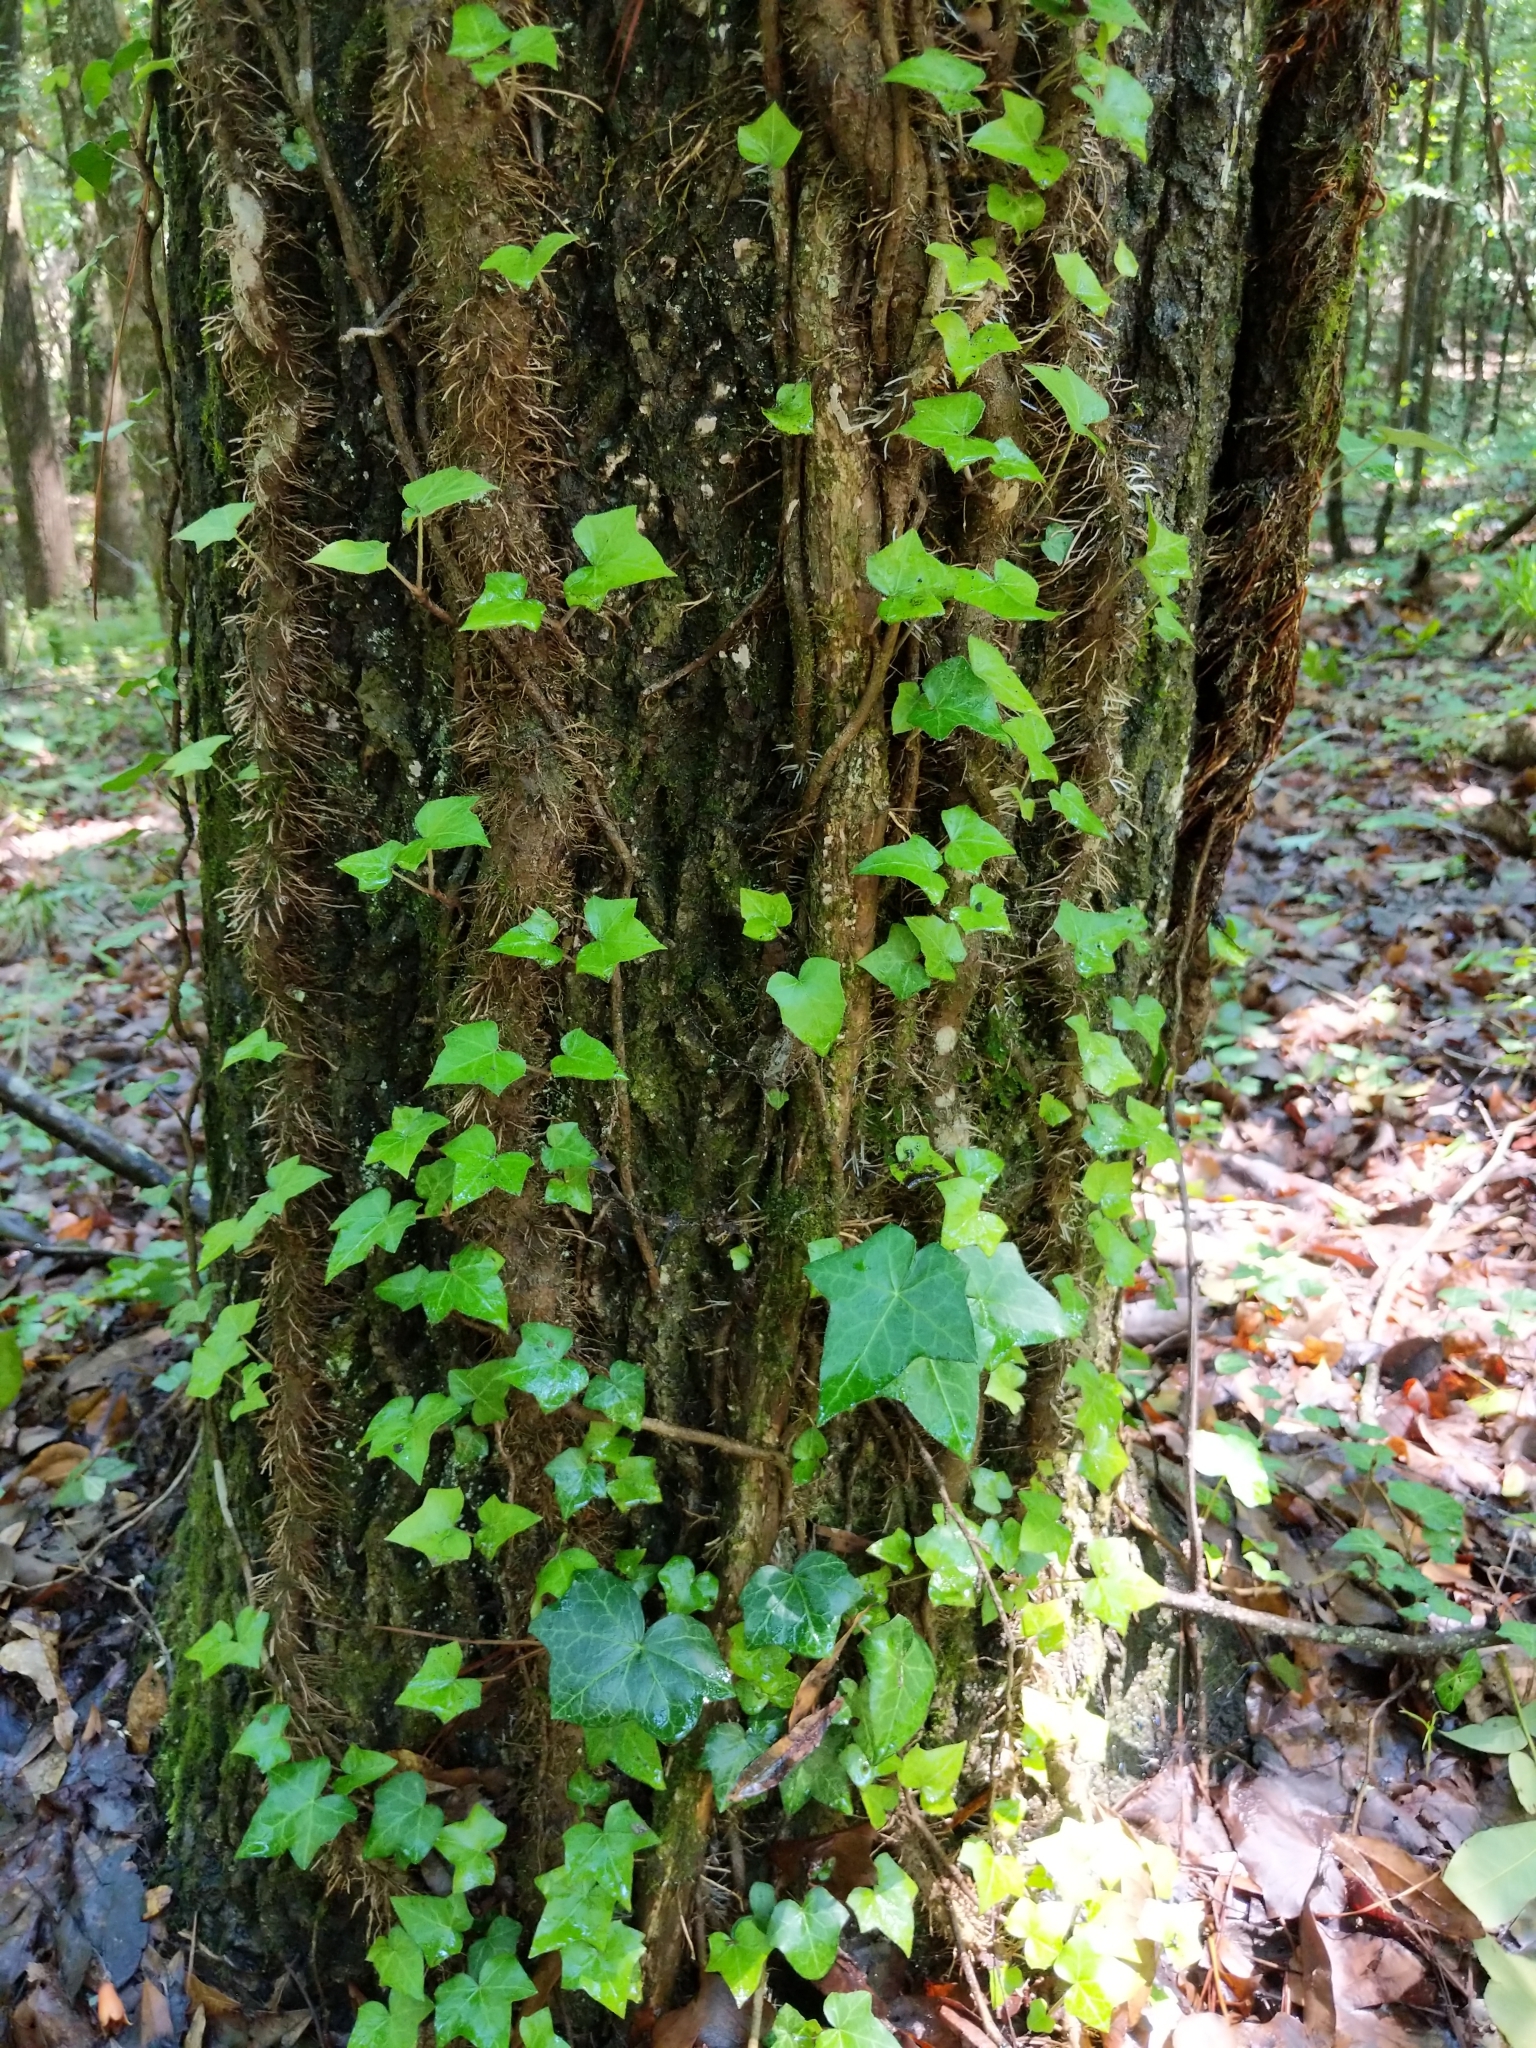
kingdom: Plantae
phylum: Tracheophyta
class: Magnoliopsida
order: Apiales
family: Araliaceae
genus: Hedera
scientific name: Hedera helix
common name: Ivy
